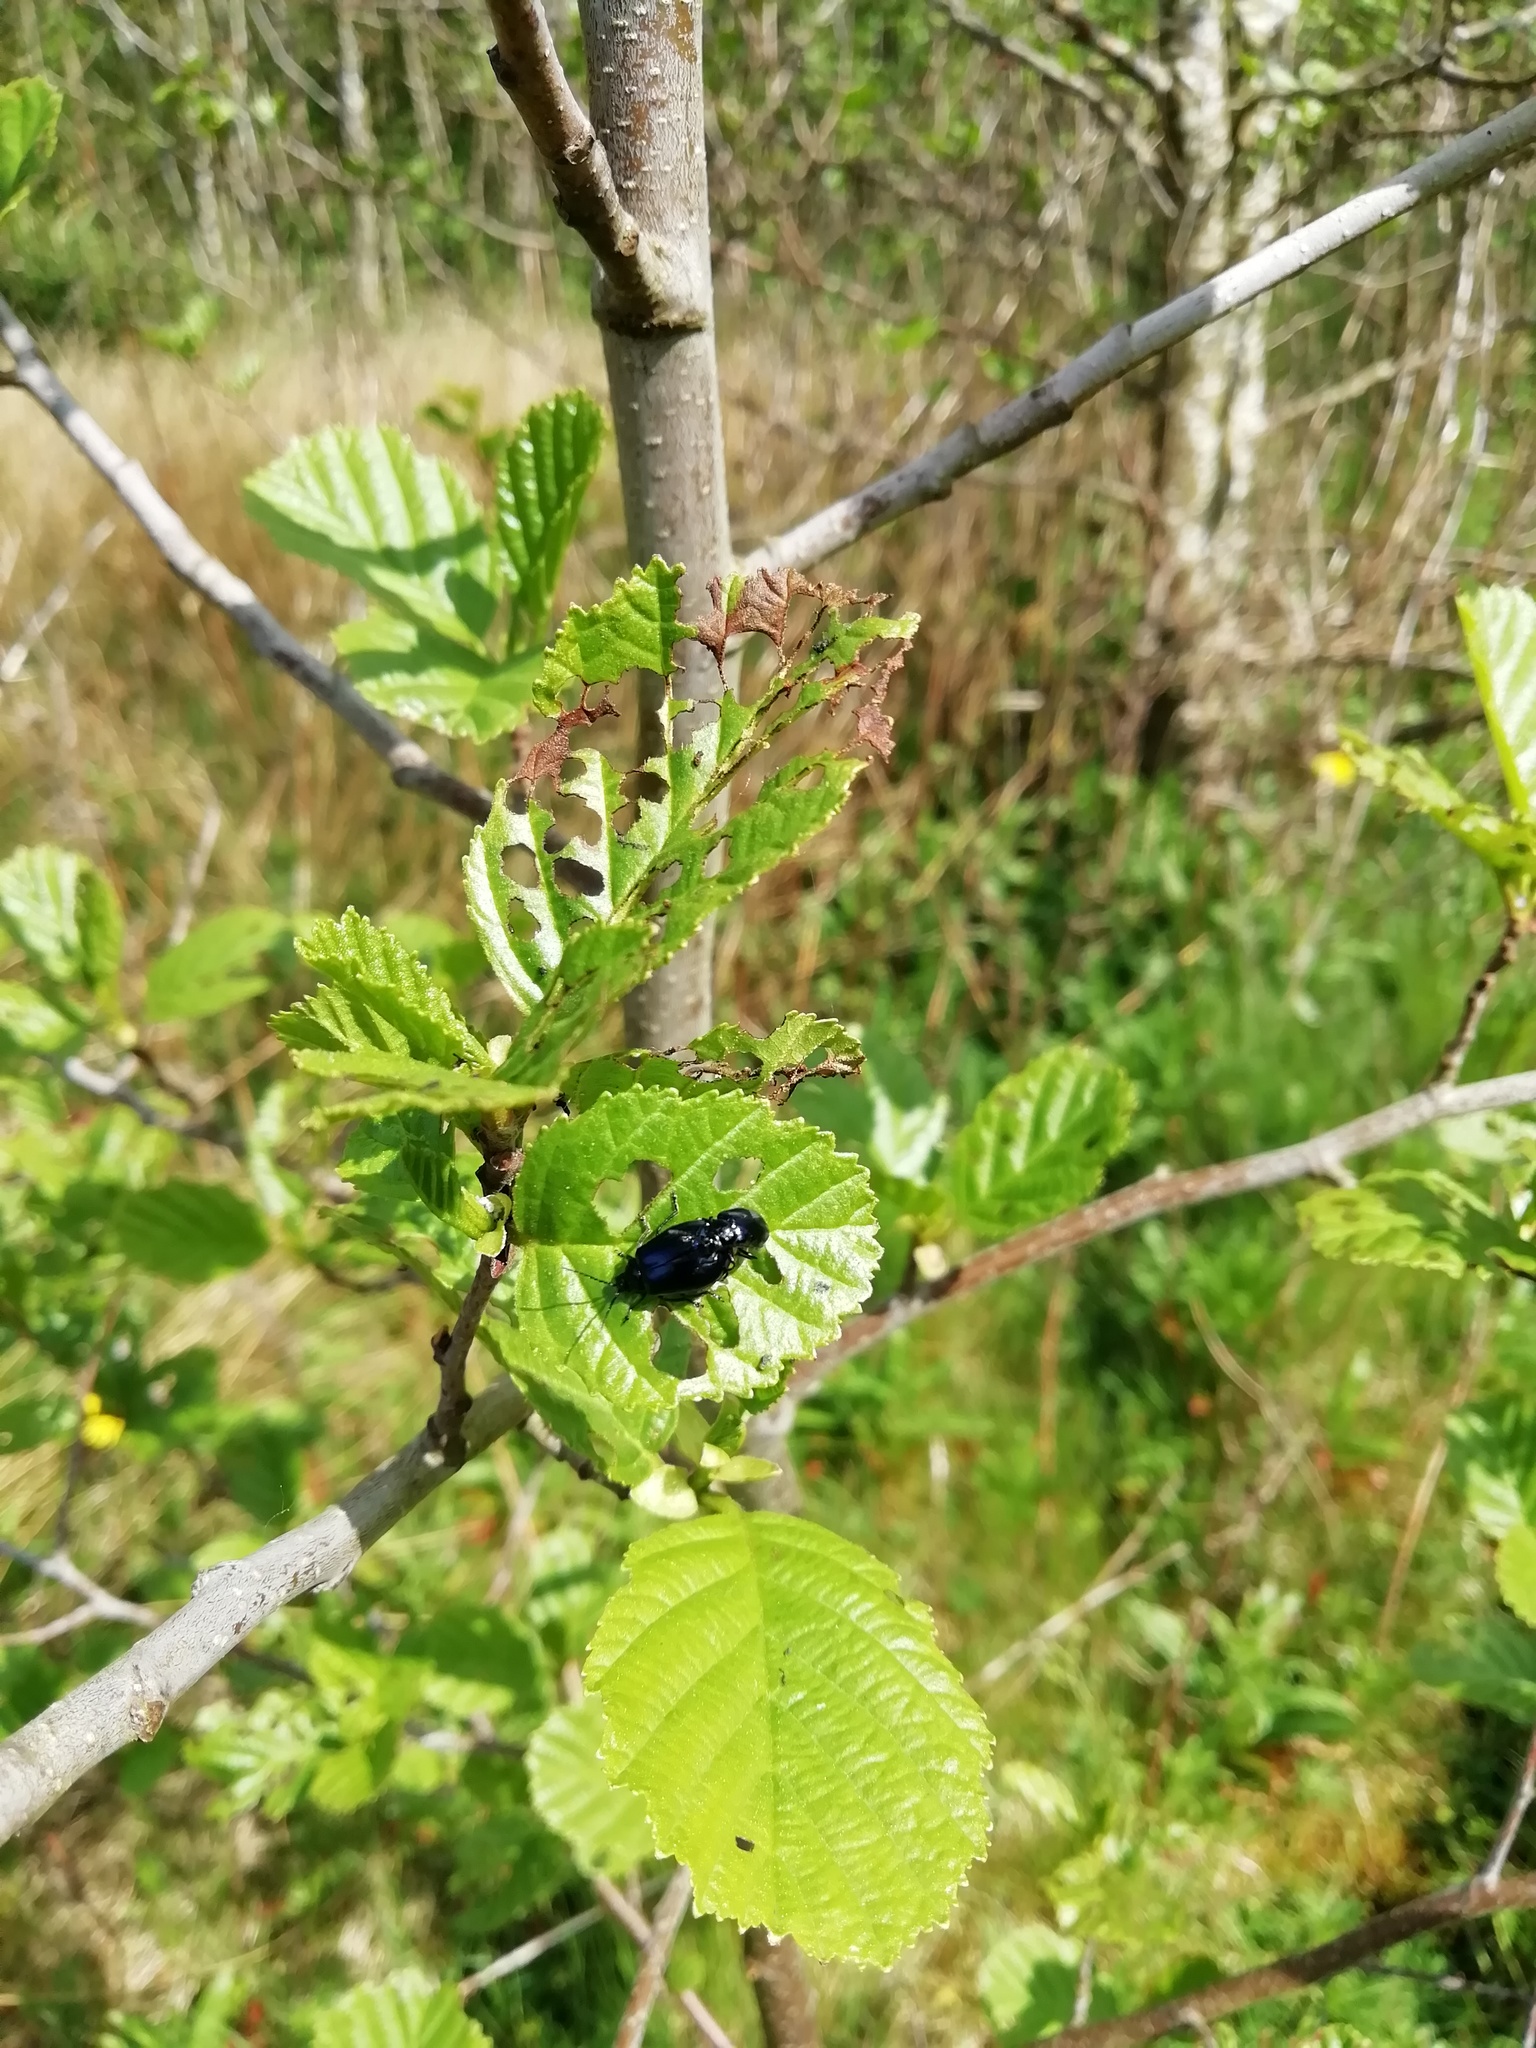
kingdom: Animalia
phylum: Arthropoda
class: Insecta
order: Coleoptera
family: Chrysomelidae
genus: Agelastica
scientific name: Agelastica alni
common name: Alder leaf beetle
